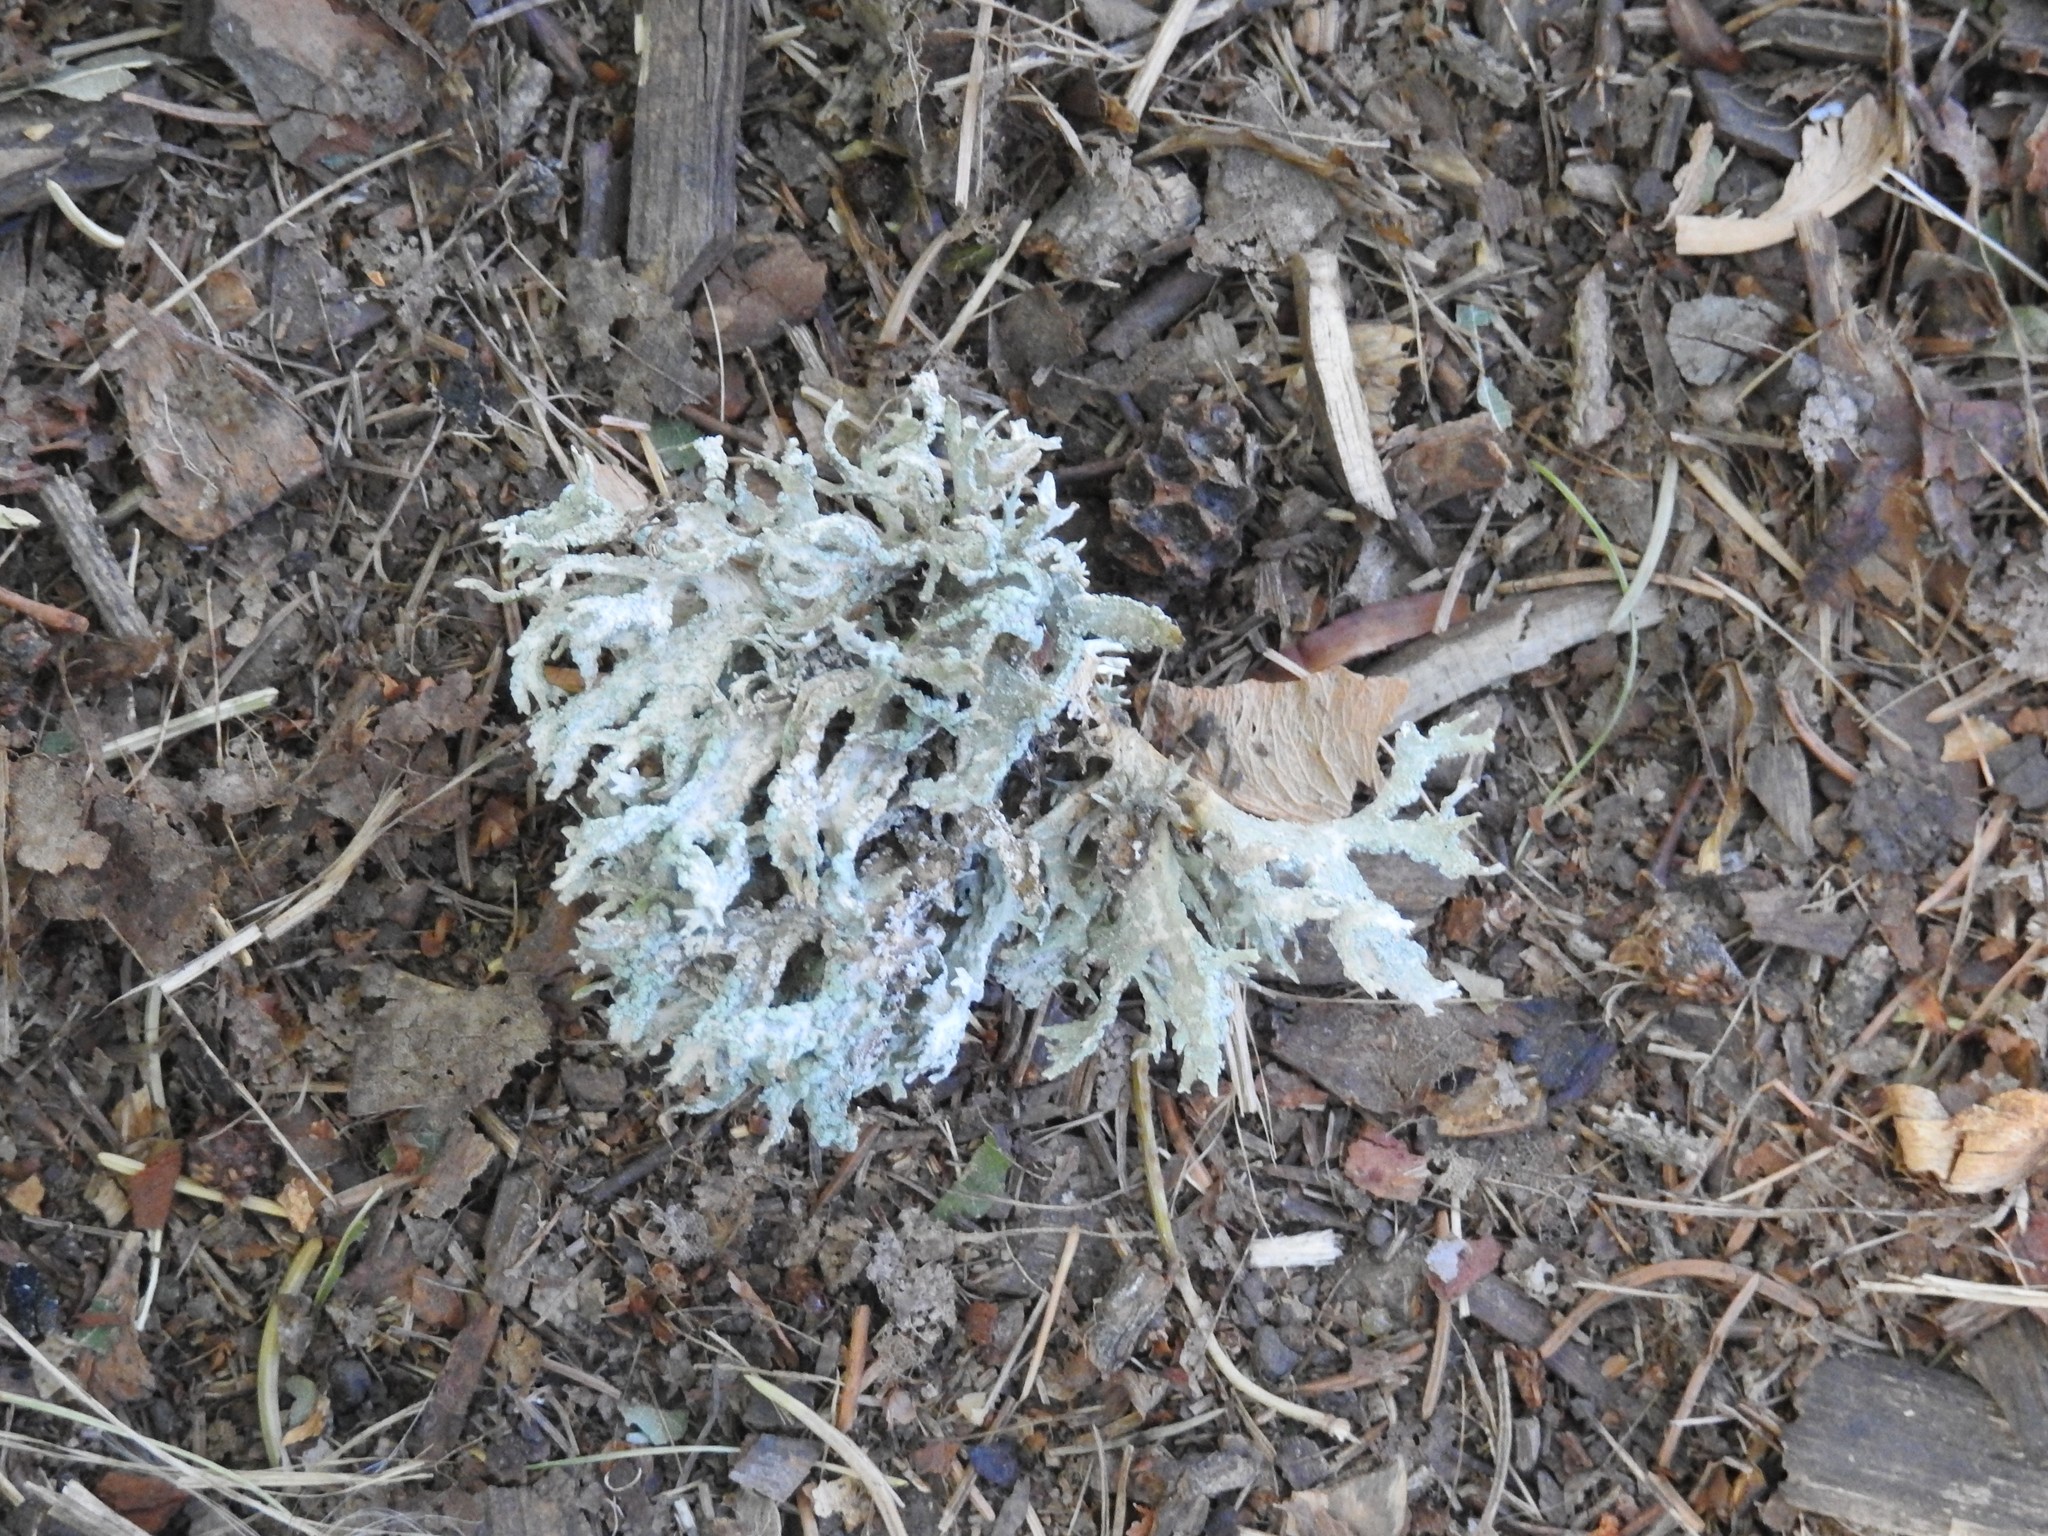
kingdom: Fungi
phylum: Ascomycota
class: Lecanoromycetes
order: Lecanorales
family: Parmeliaceae
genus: Evernia
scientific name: Evernia prunastri
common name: Oak moss
